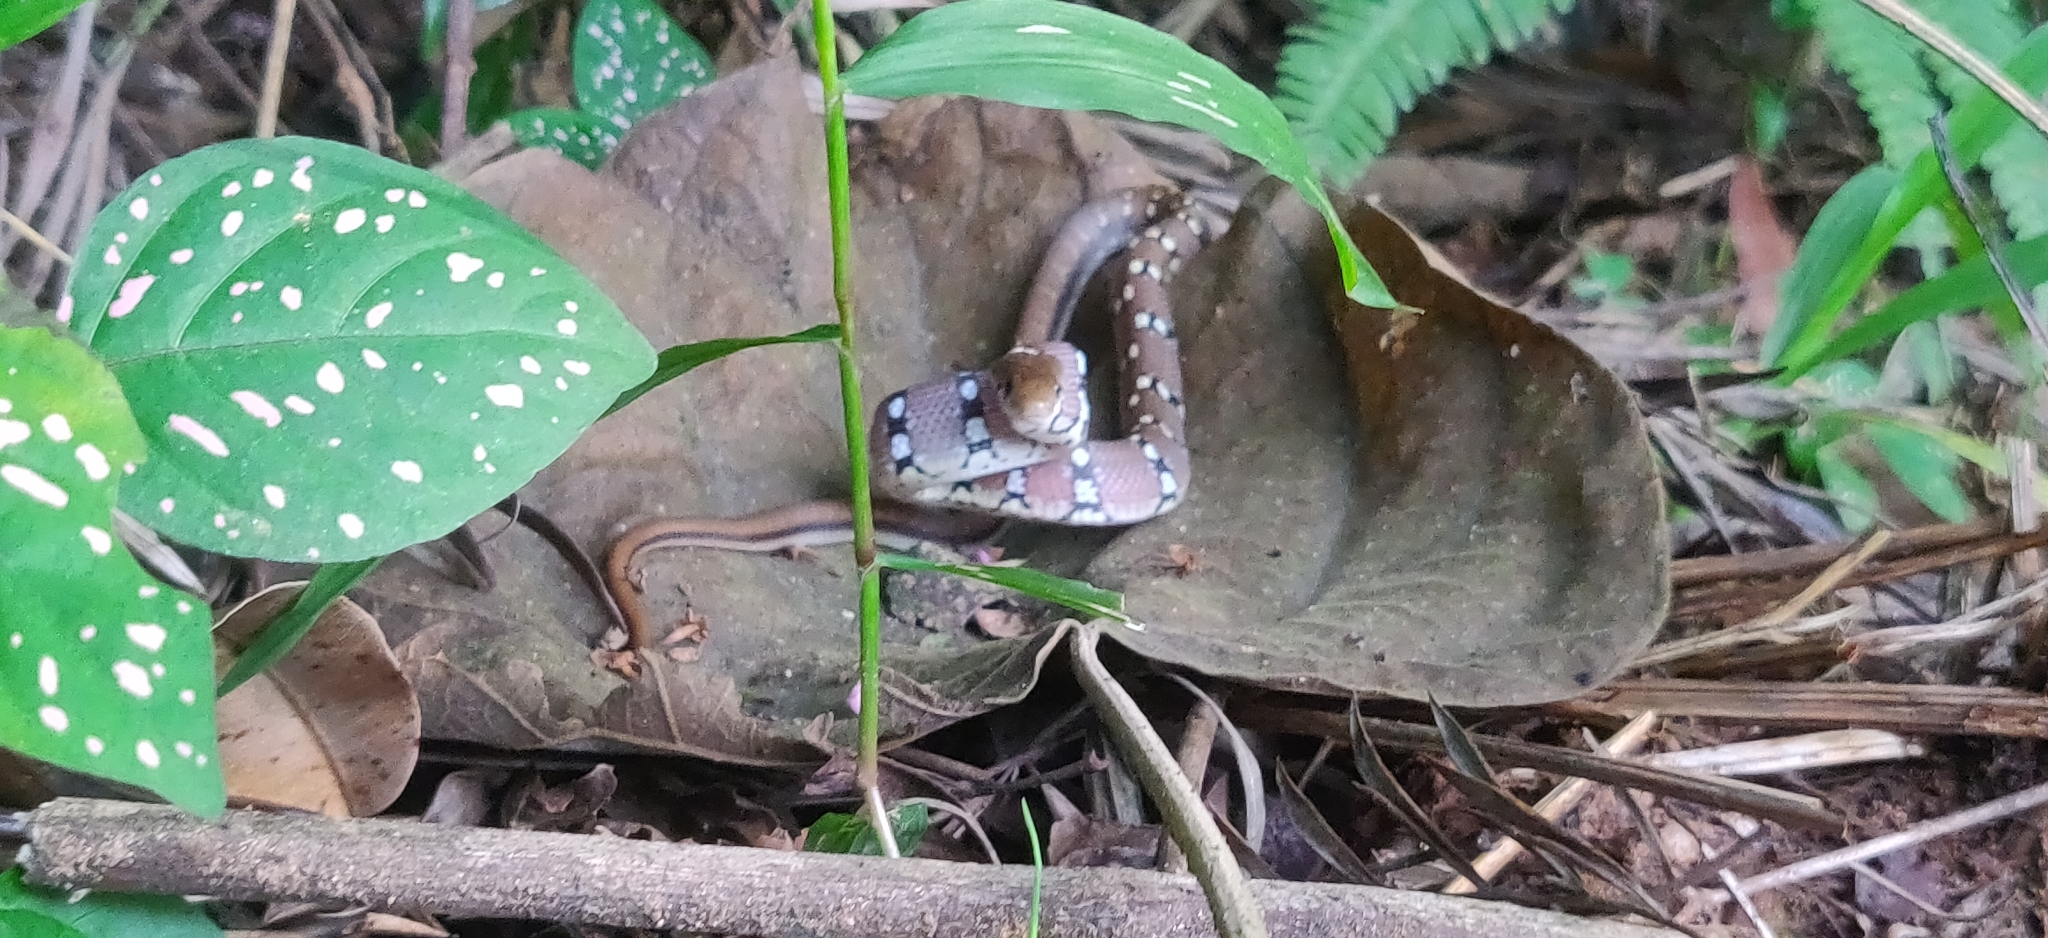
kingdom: Animalia
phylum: Chordata
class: Squamata
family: Colubridae
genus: Coelognathus
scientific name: Coelognathus helena
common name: Trinket snake
